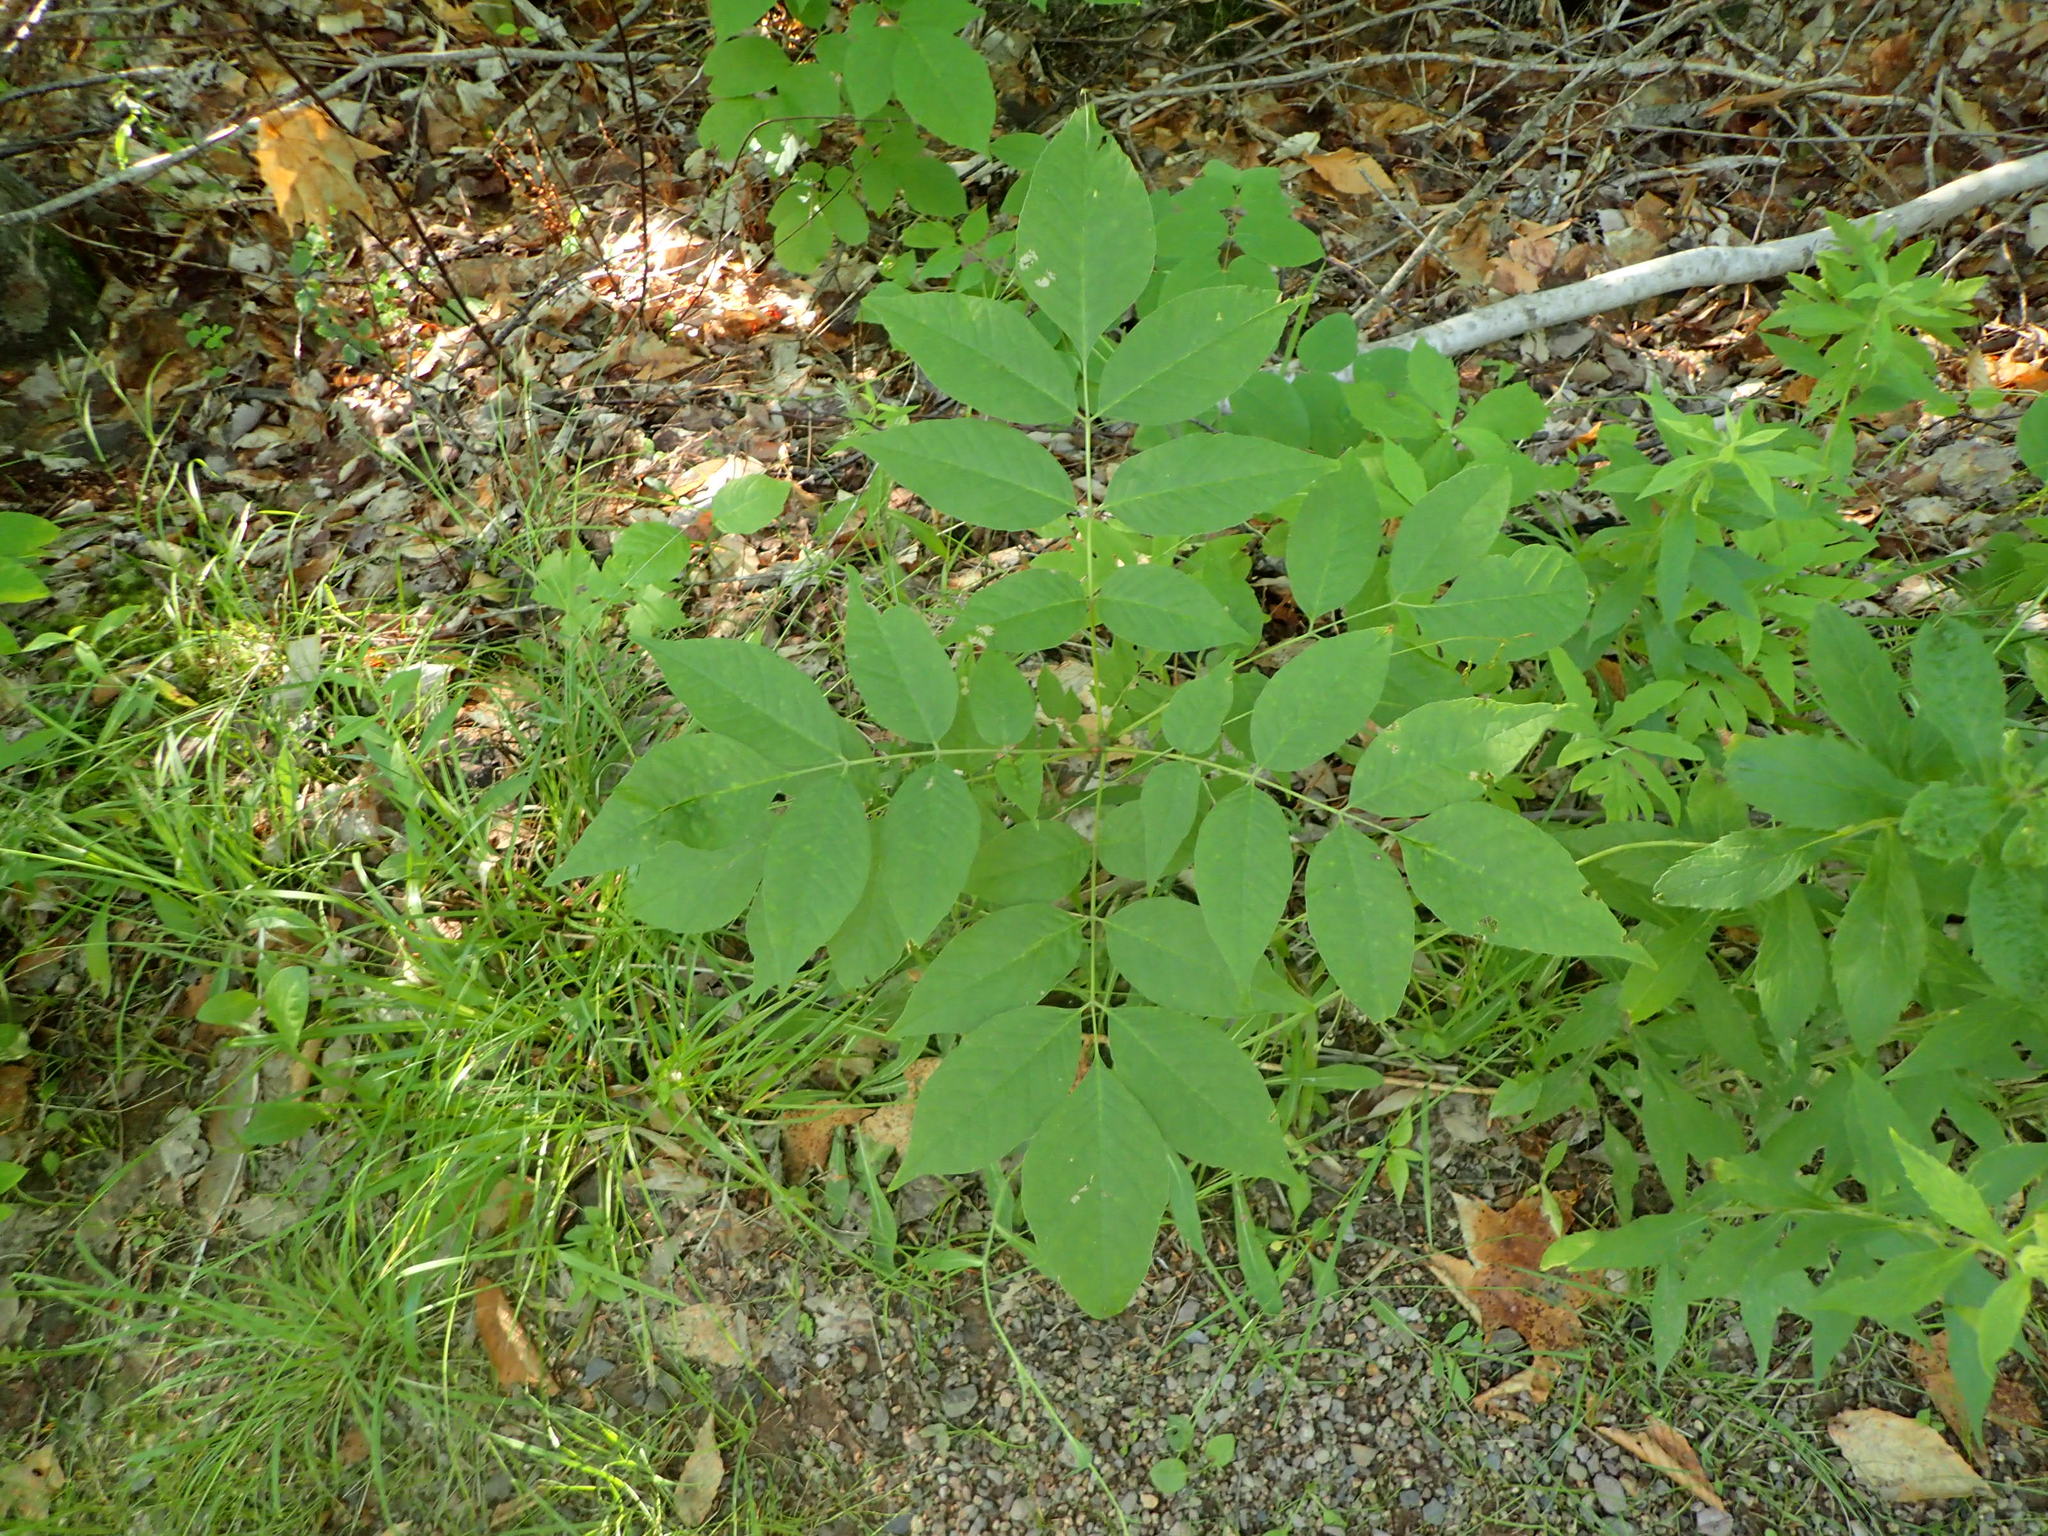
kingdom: Plantae
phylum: Tracheophyta
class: Magnoliopsida
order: Lamiales
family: Oleaceae
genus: Fraxinus
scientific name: Fraxinus americana
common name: White ash
